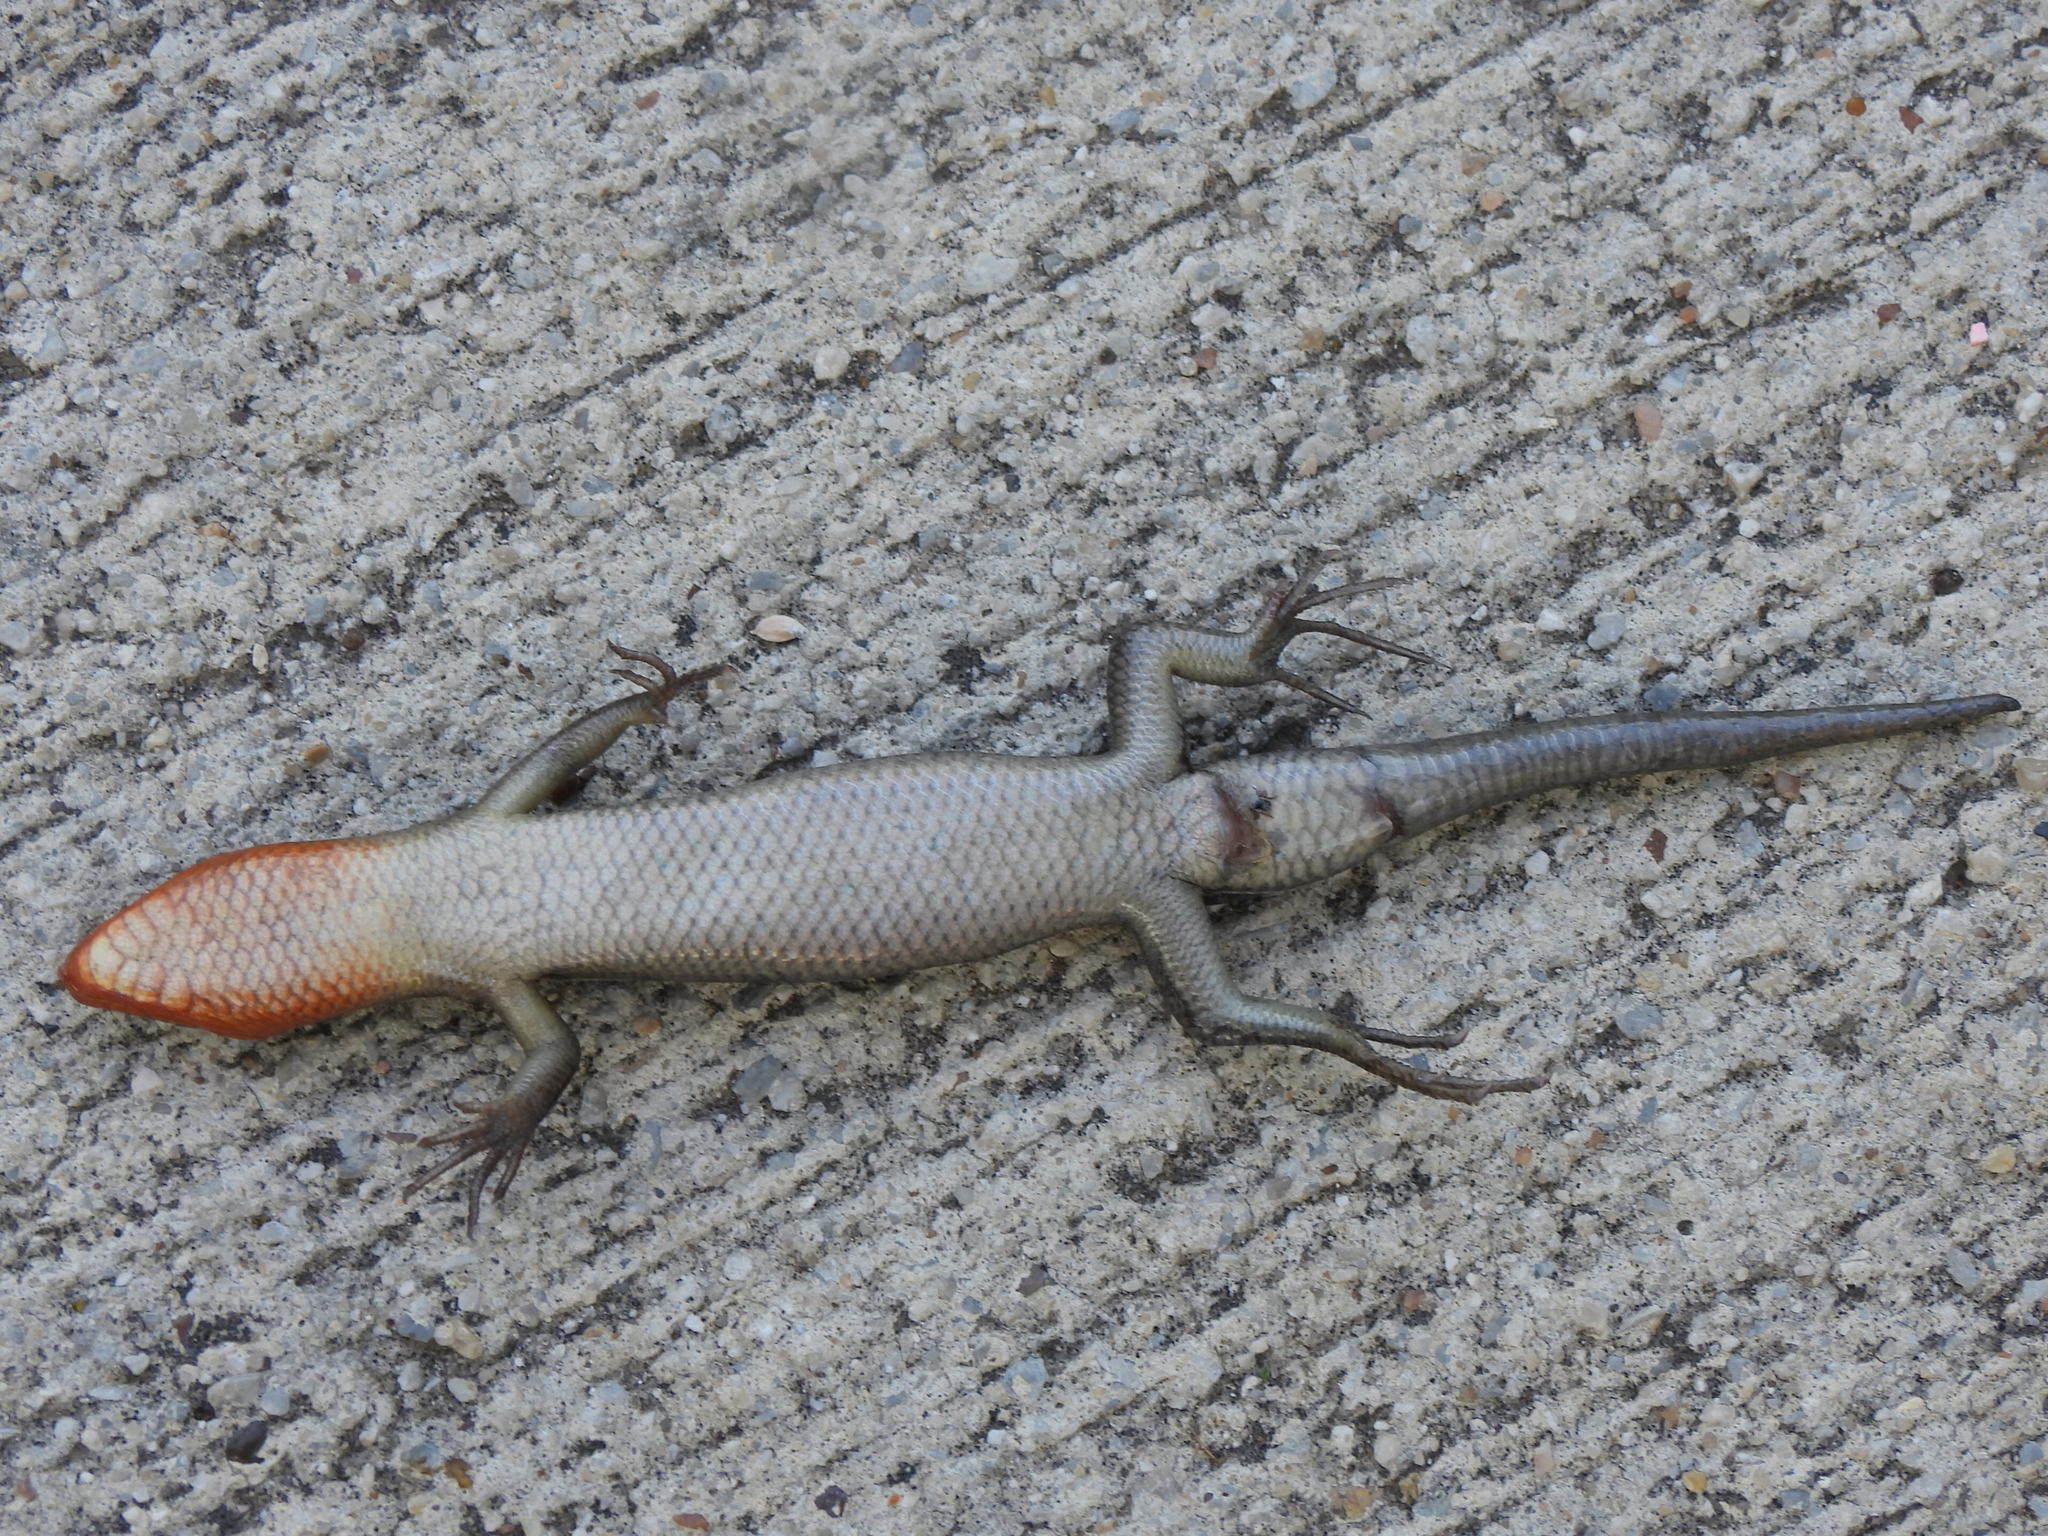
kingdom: Animalia
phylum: Chordata
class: Squamata
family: Scincidae
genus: Plestiodon
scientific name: Plestiodon fasciatus
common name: Five-lined skink
